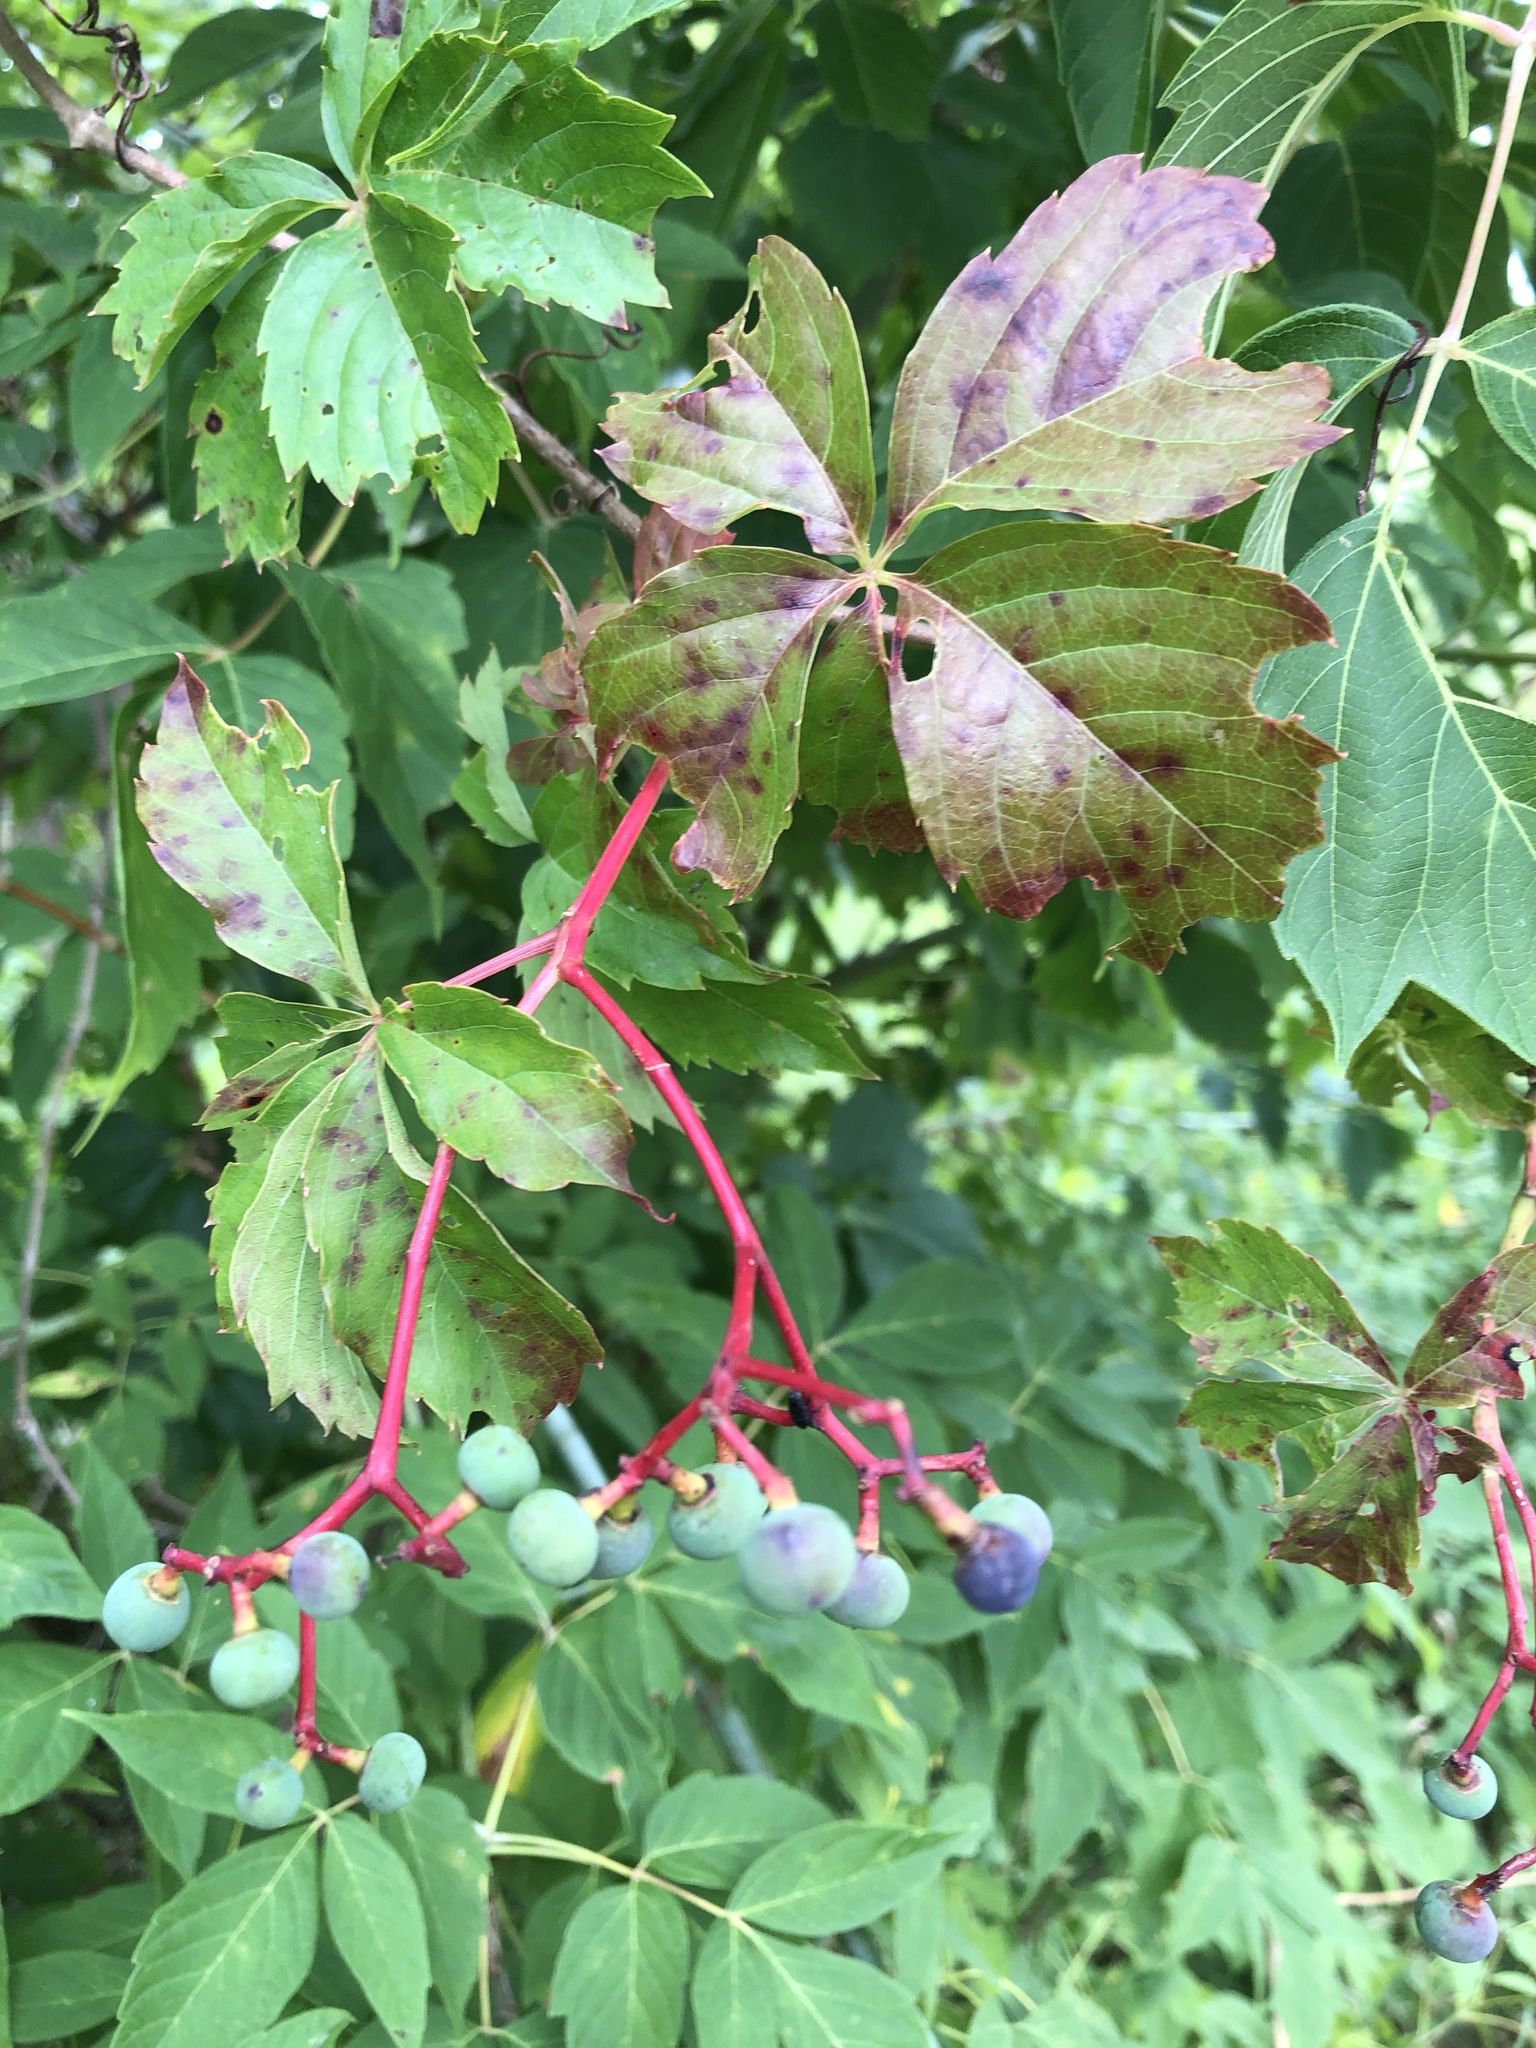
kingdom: Plantae
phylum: Tracheophyta
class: Magnoliopsida
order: Vitales
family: Vitaceae
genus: Parthenocissus
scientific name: Parthenocissus quinquefolia
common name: Virginia-creeper
